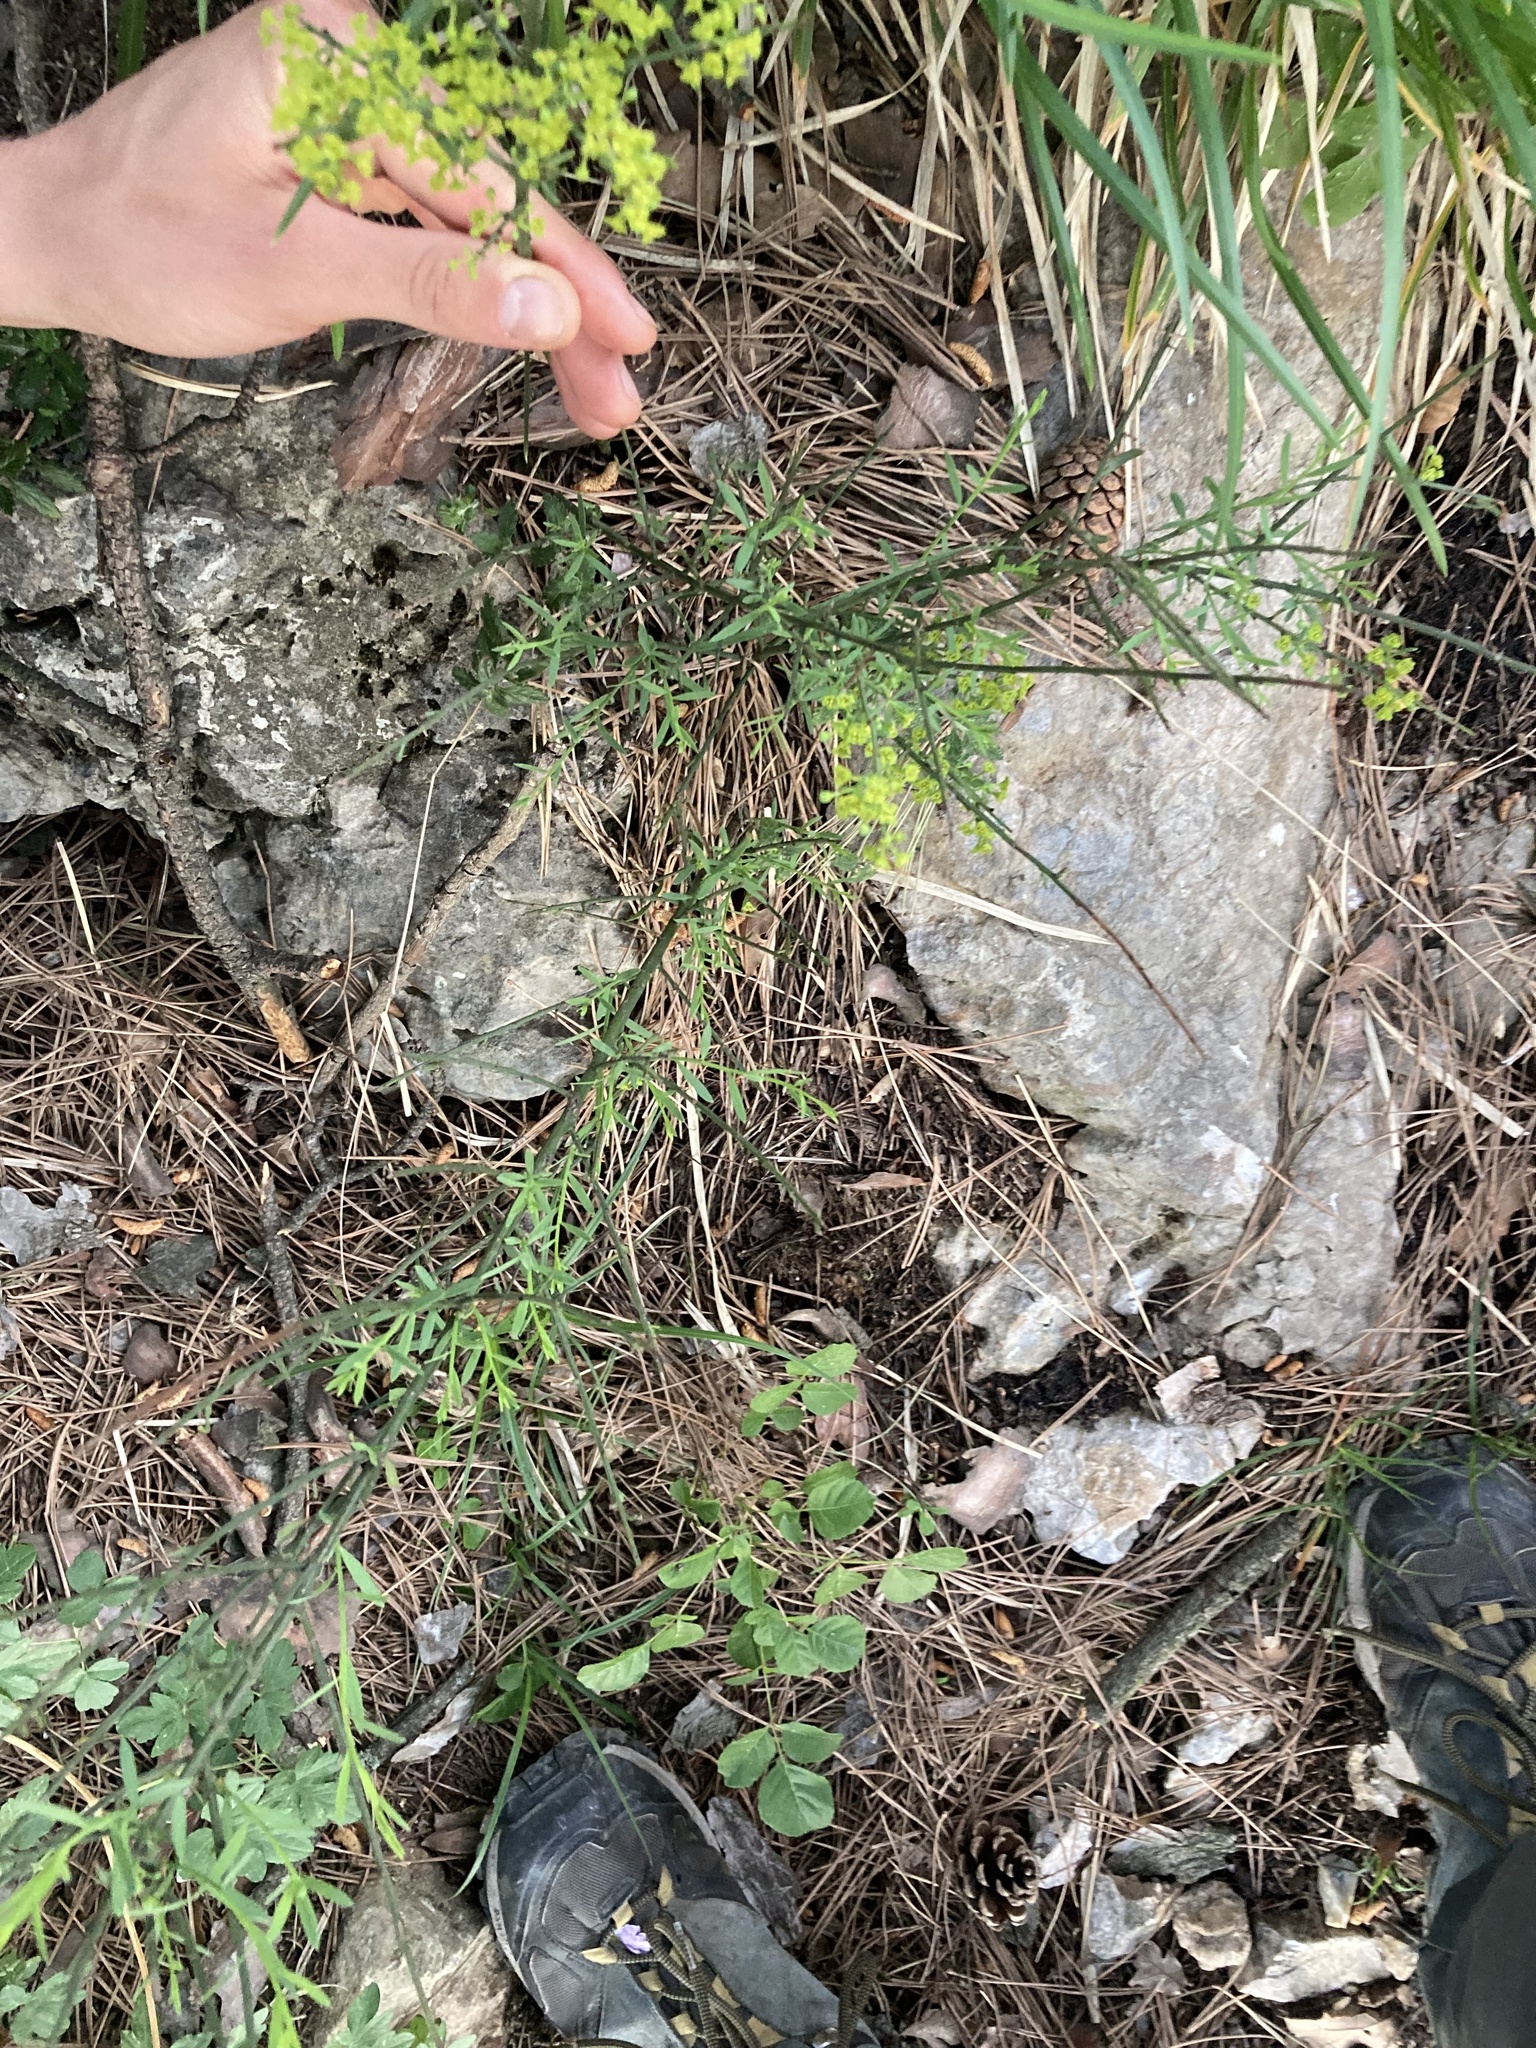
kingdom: Plantae
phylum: Tracheophyta
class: Magnoliopsida
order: Santalales
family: Santalaceae
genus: Osyris
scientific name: Osyris alba
